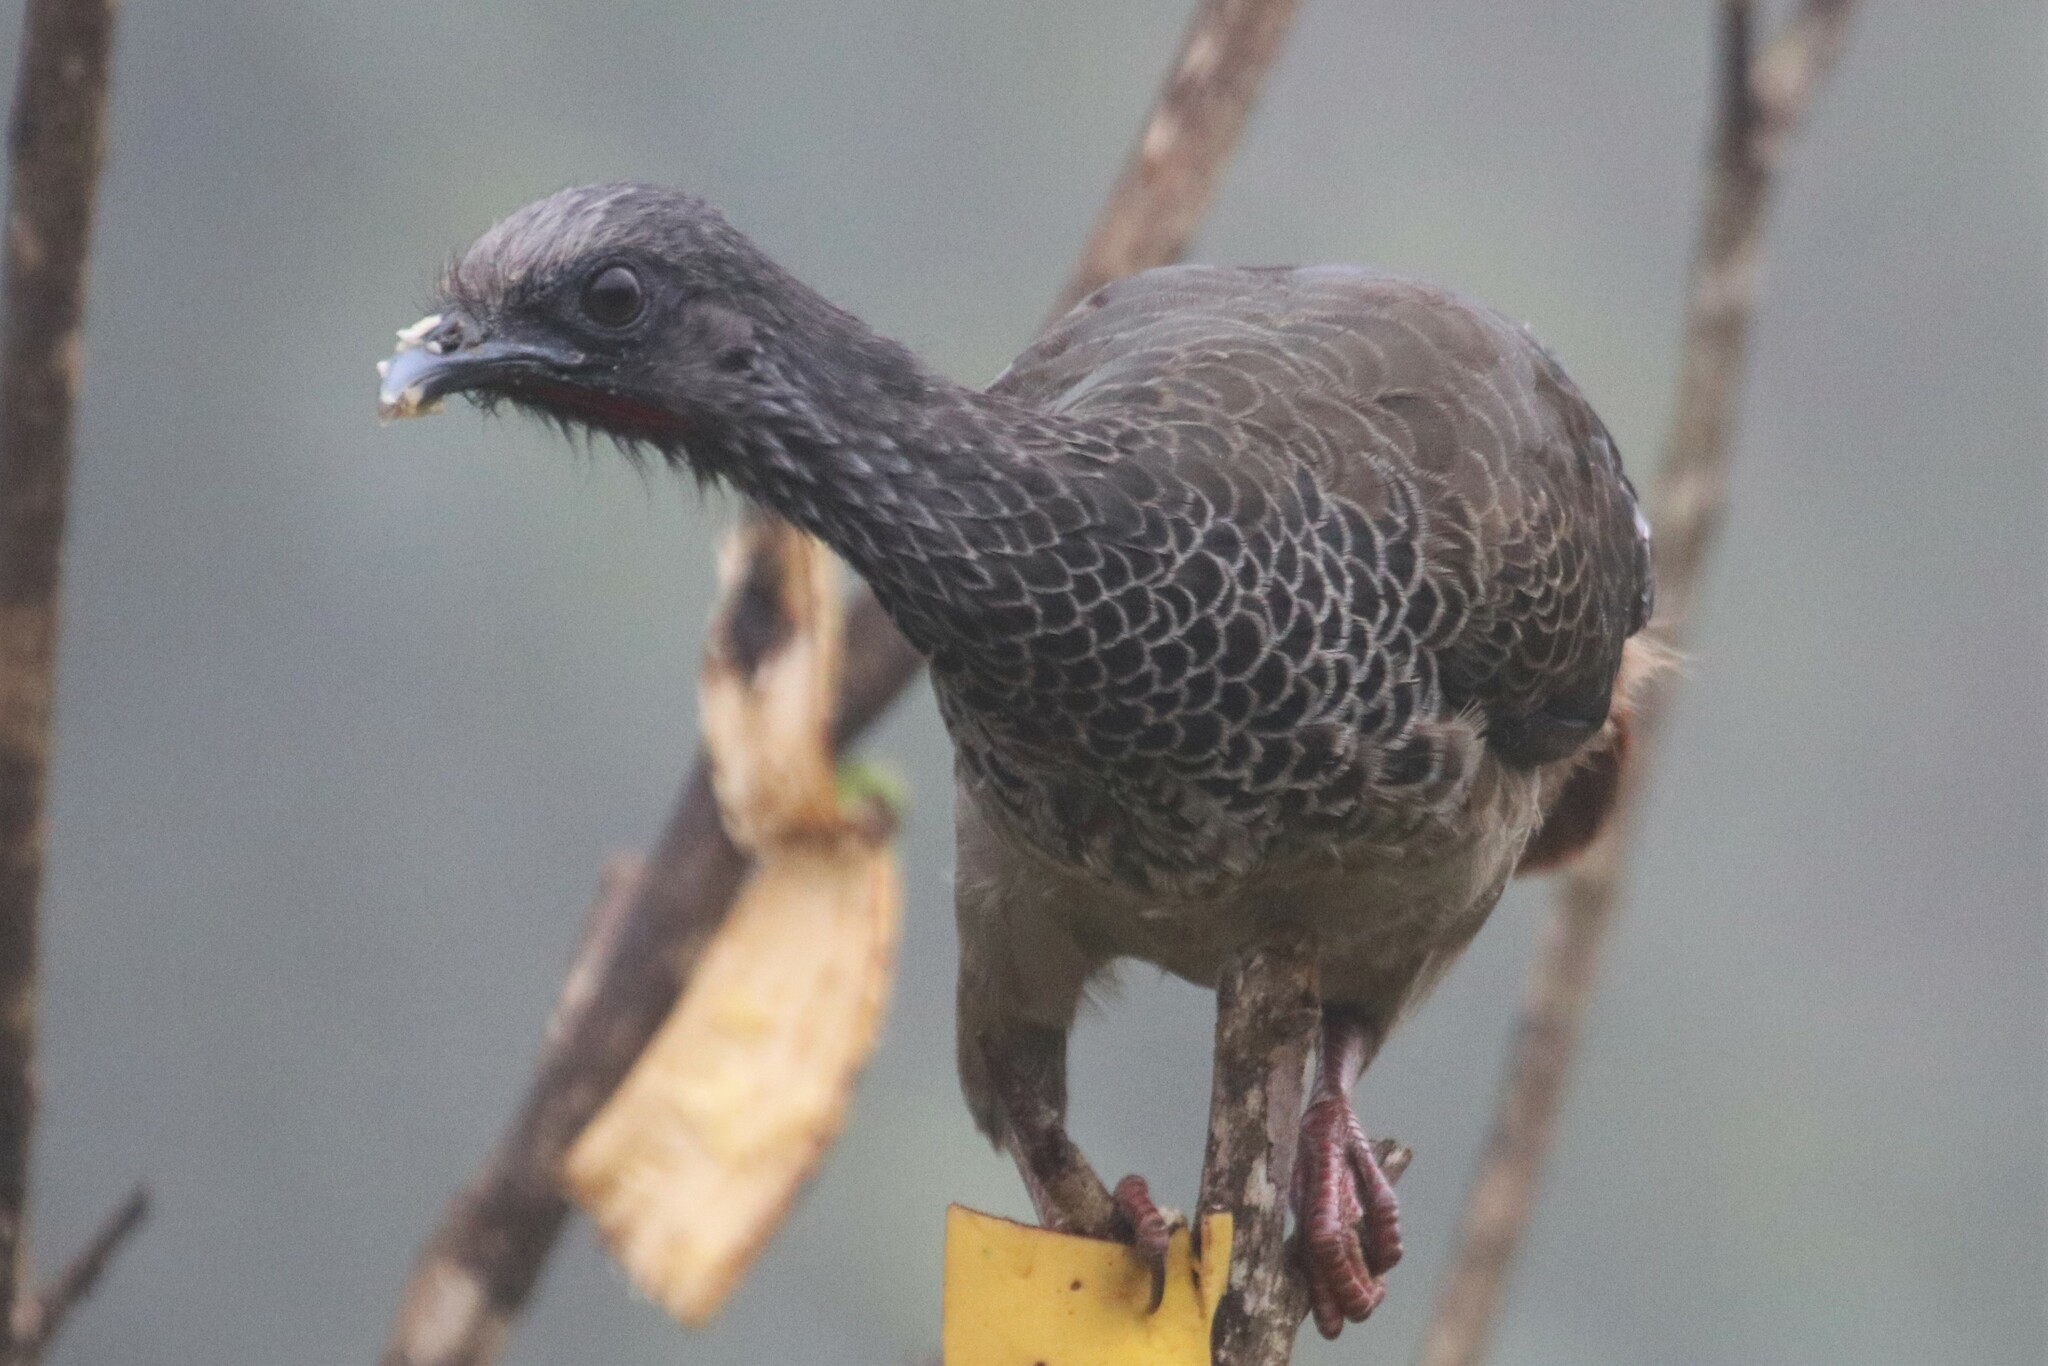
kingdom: Animalia
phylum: Chordata
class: Aves
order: Galliformes
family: Cracidae
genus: Ortalis
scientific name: Ortalis columbiana
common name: Colombian chachalaca
